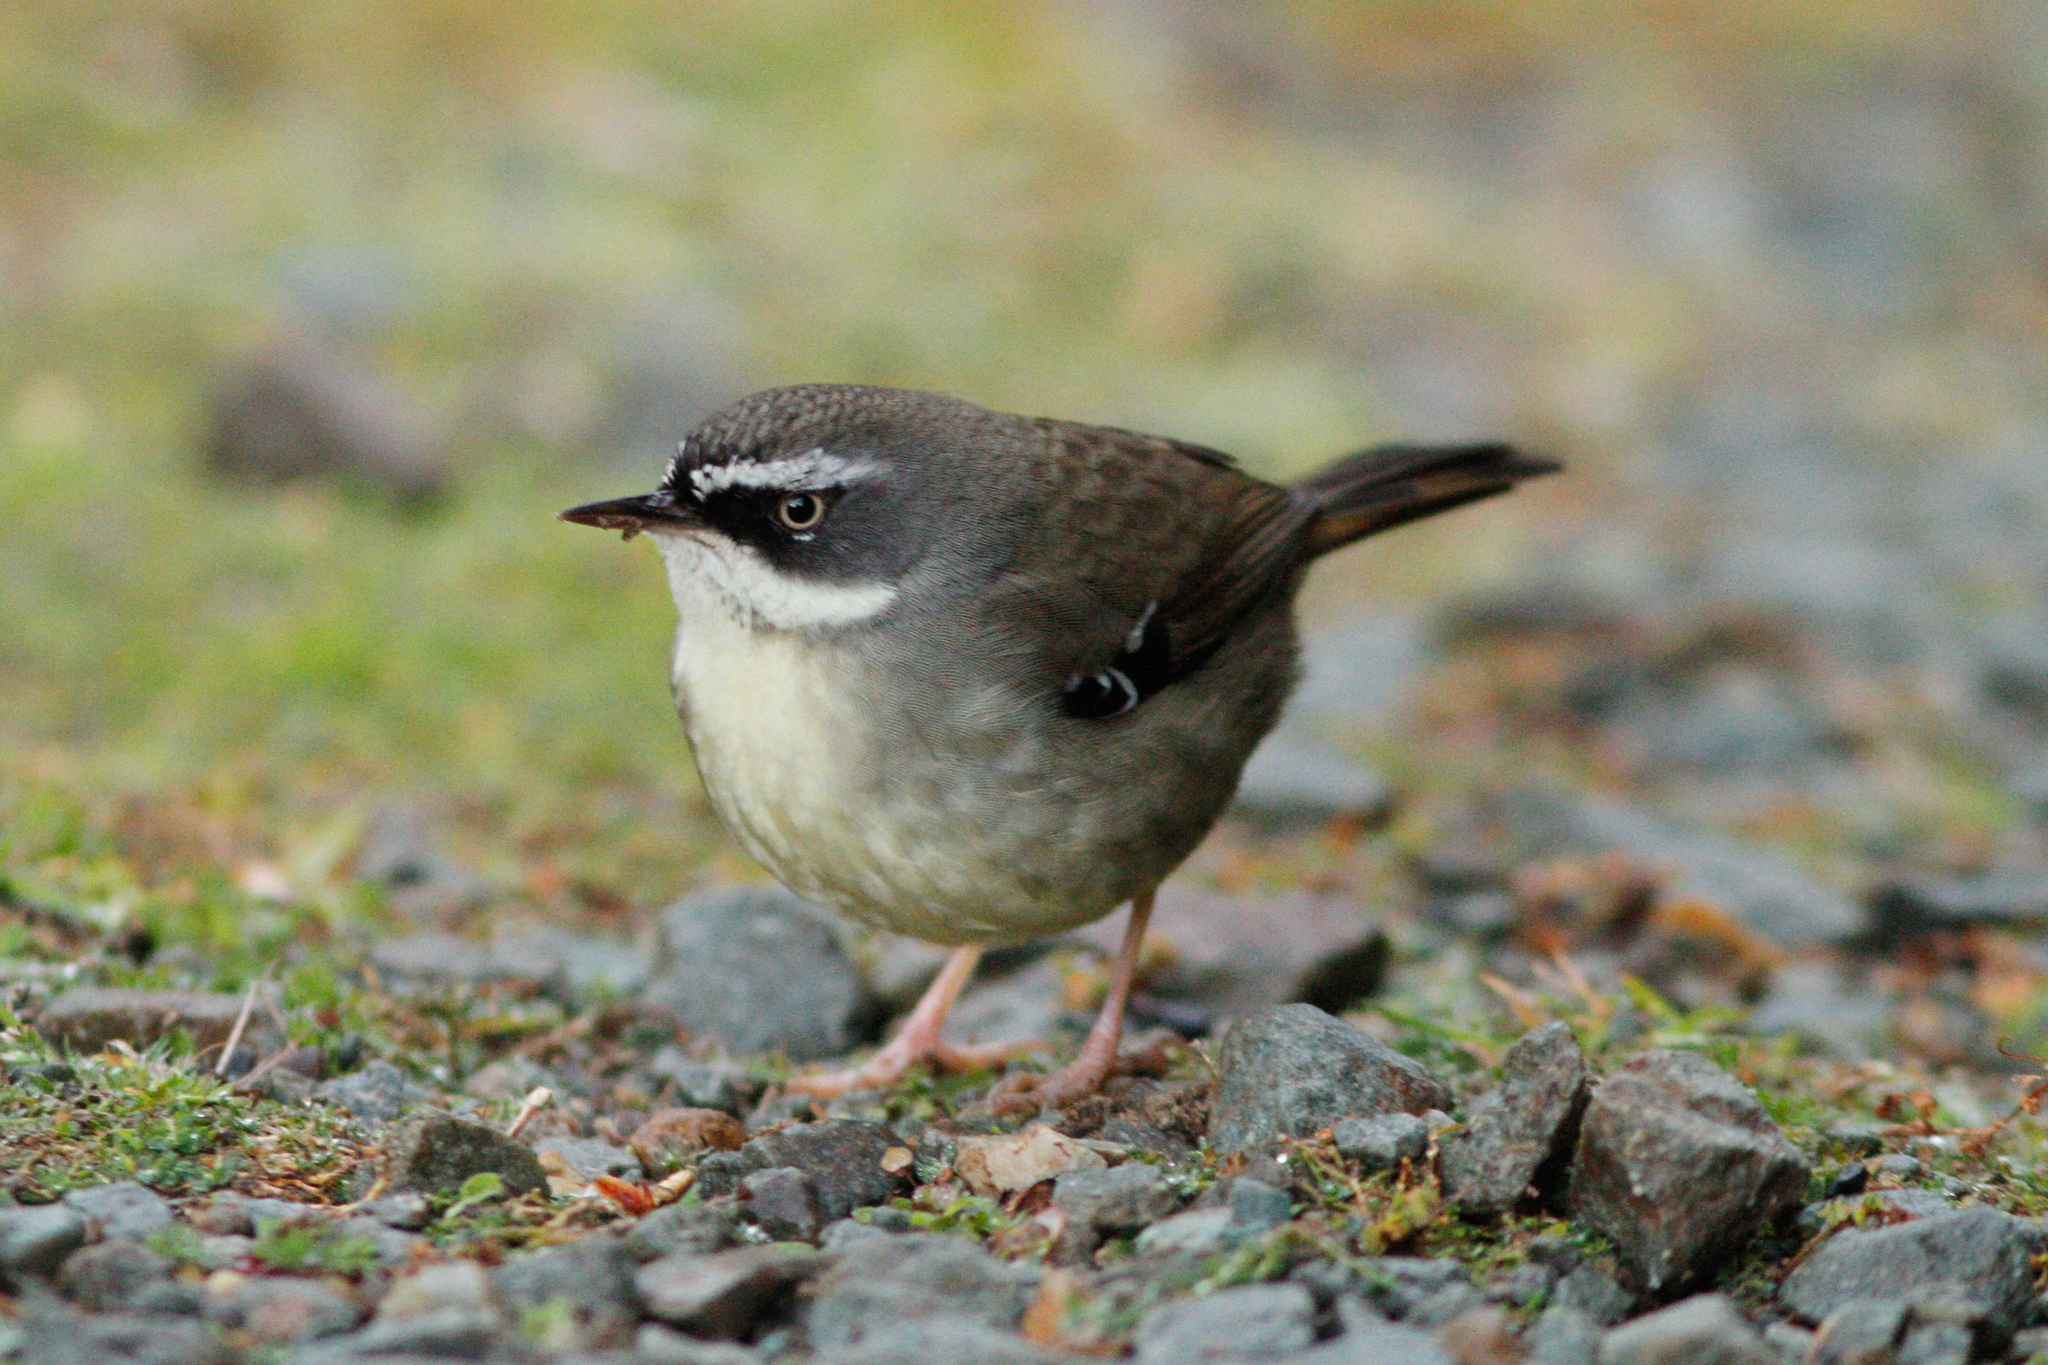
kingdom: Animalia
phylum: Chordata
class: Aves
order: Passeriformes
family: Acanthizidae
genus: Sericornis
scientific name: Sericornis frontalis
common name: White-browed scrubwren
